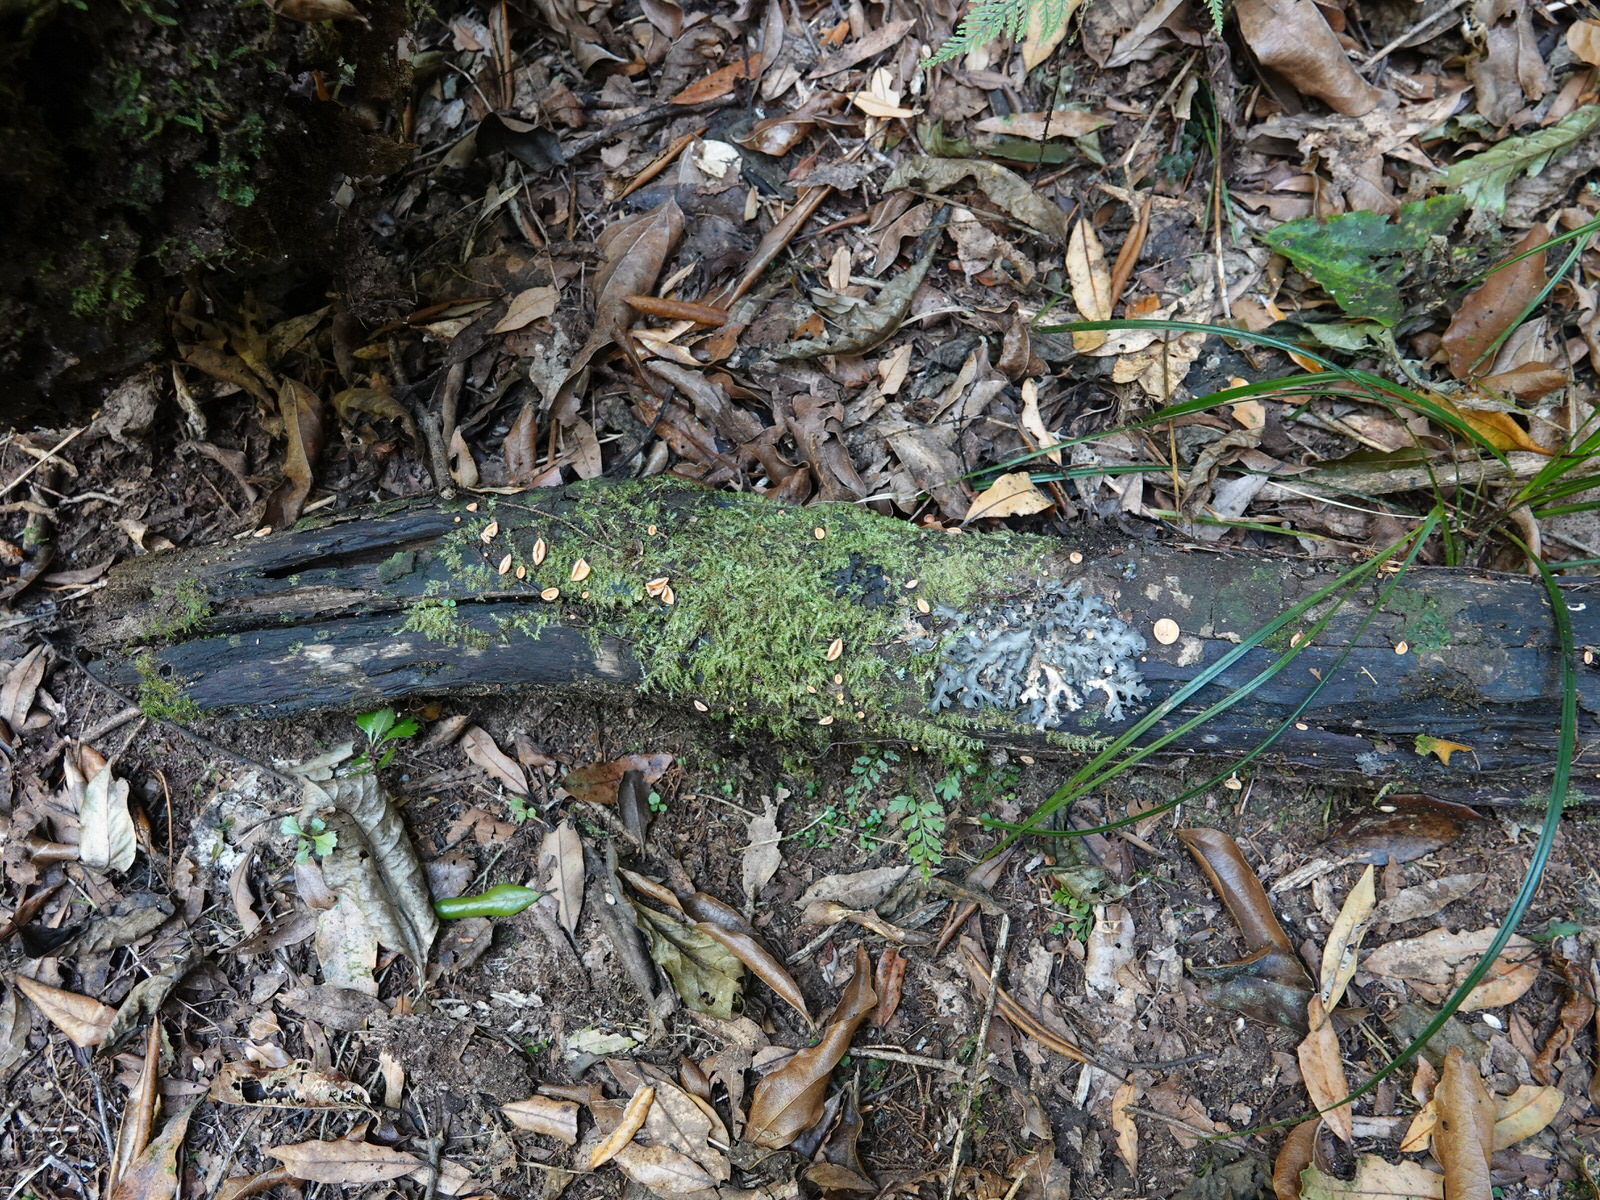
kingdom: Fungi
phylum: Ascomycota
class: Pezizomycetes
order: Pezizales
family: Sarcoscyphaceae
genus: Cookeina
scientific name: Cookeina colensoi
